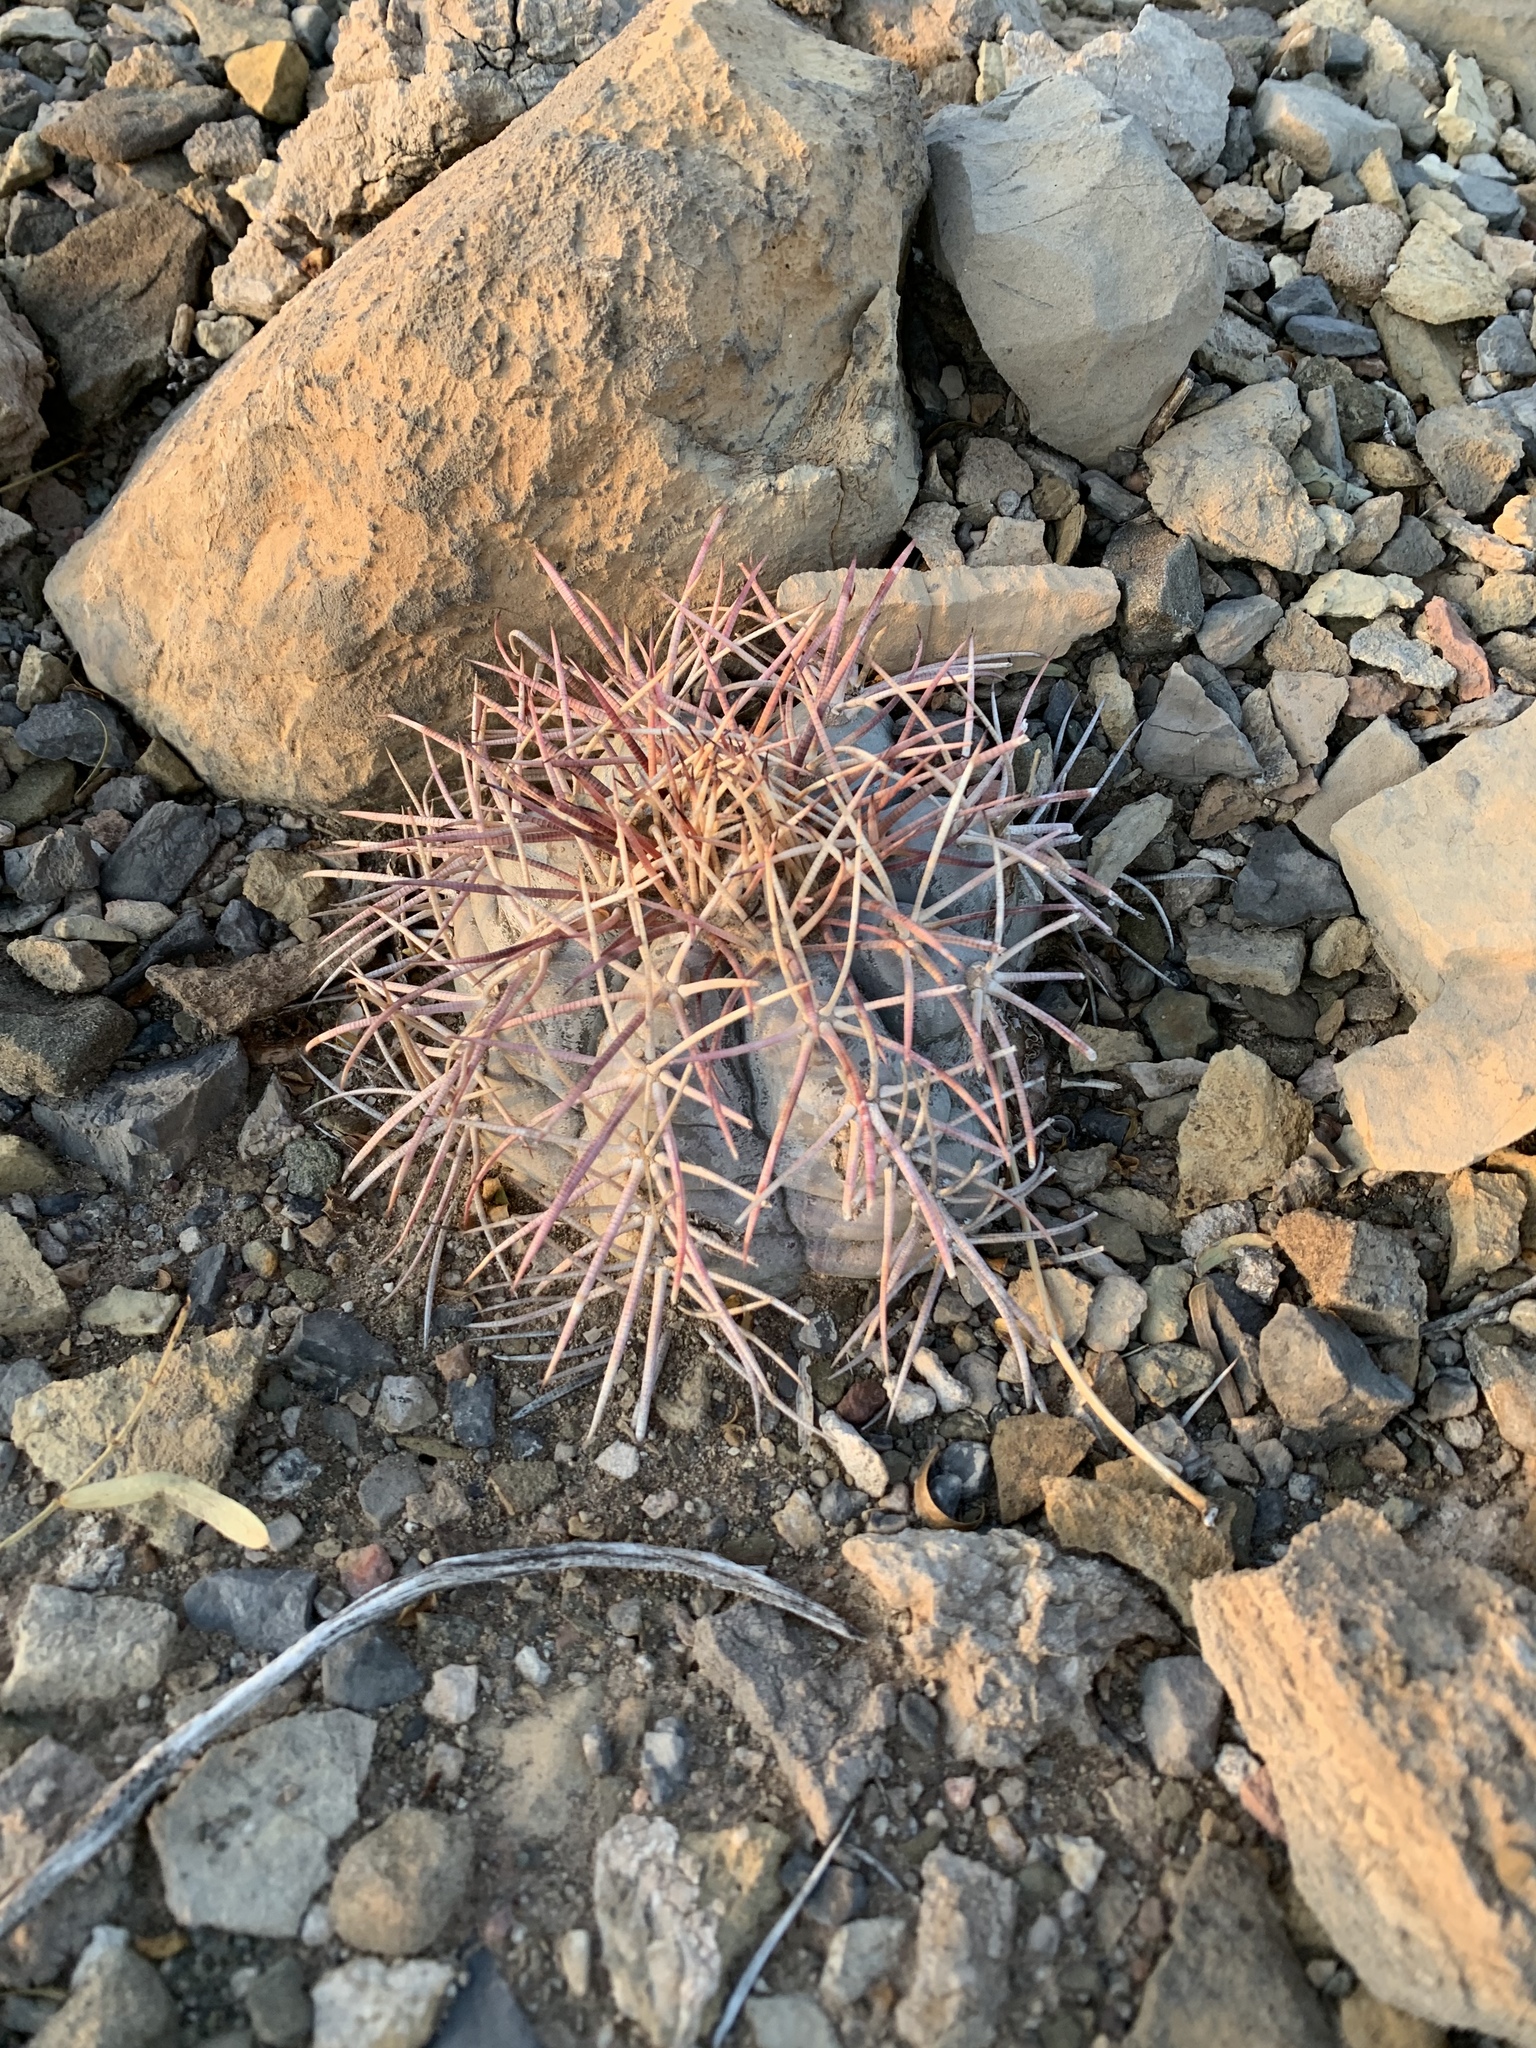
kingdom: Plantae
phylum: Tracheophyta
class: Magnoliopsida
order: Caryophyllales
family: Cactaceae
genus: Echinocactus
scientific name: Echinocactus horizonthalonius
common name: Devilshead
